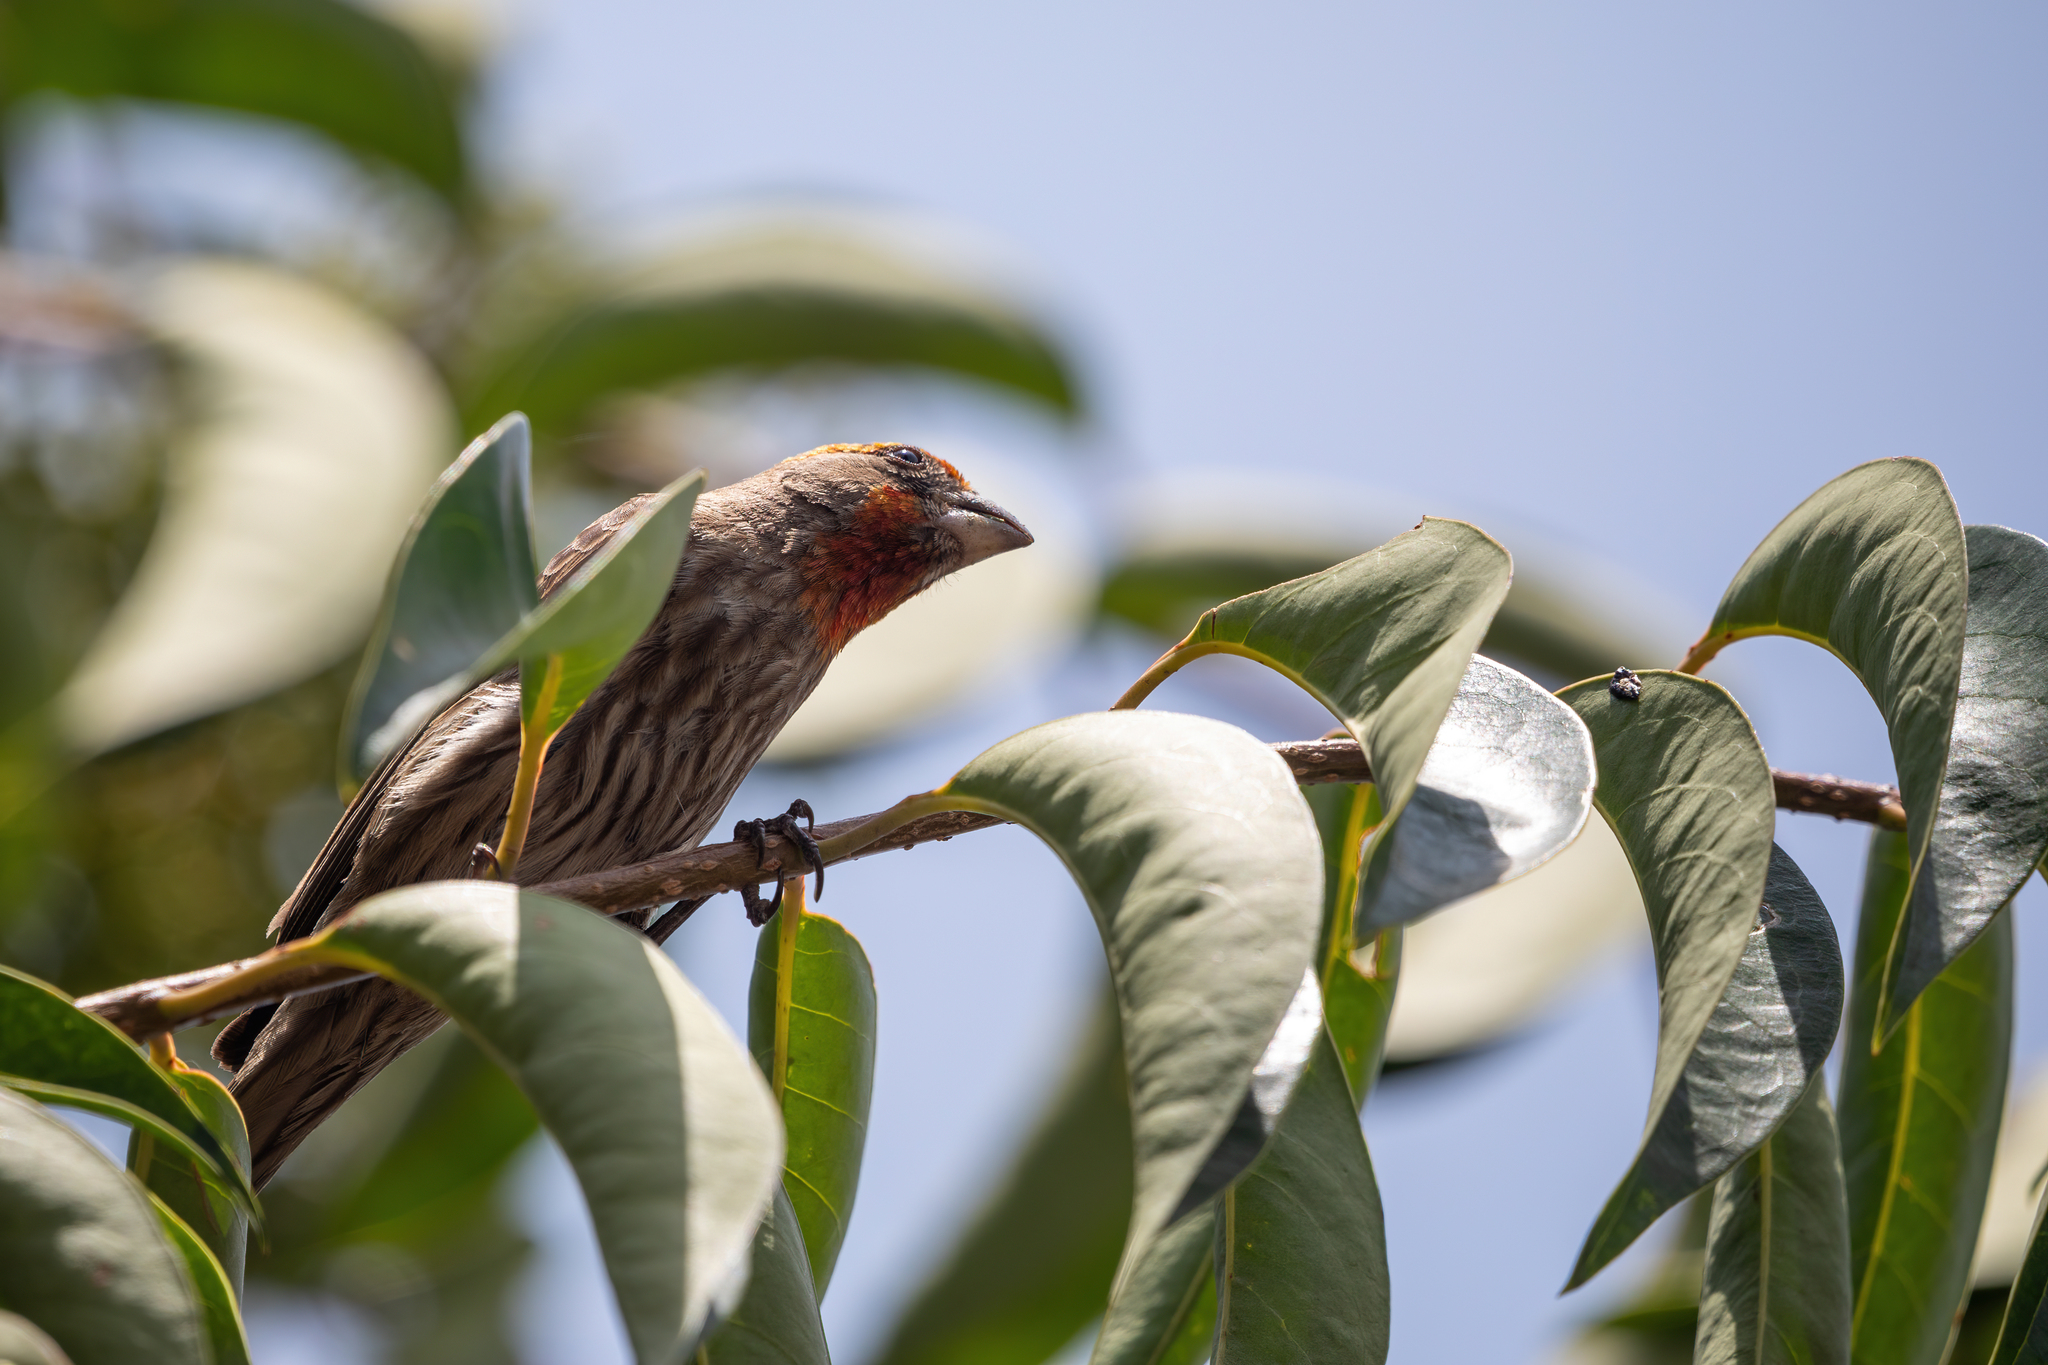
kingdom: Animalia
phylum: Chordata
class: Aves
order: Passeriformes
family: Fringillidae
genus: Haemorhous
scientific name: Haemorhous mexicanus
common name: House finch
